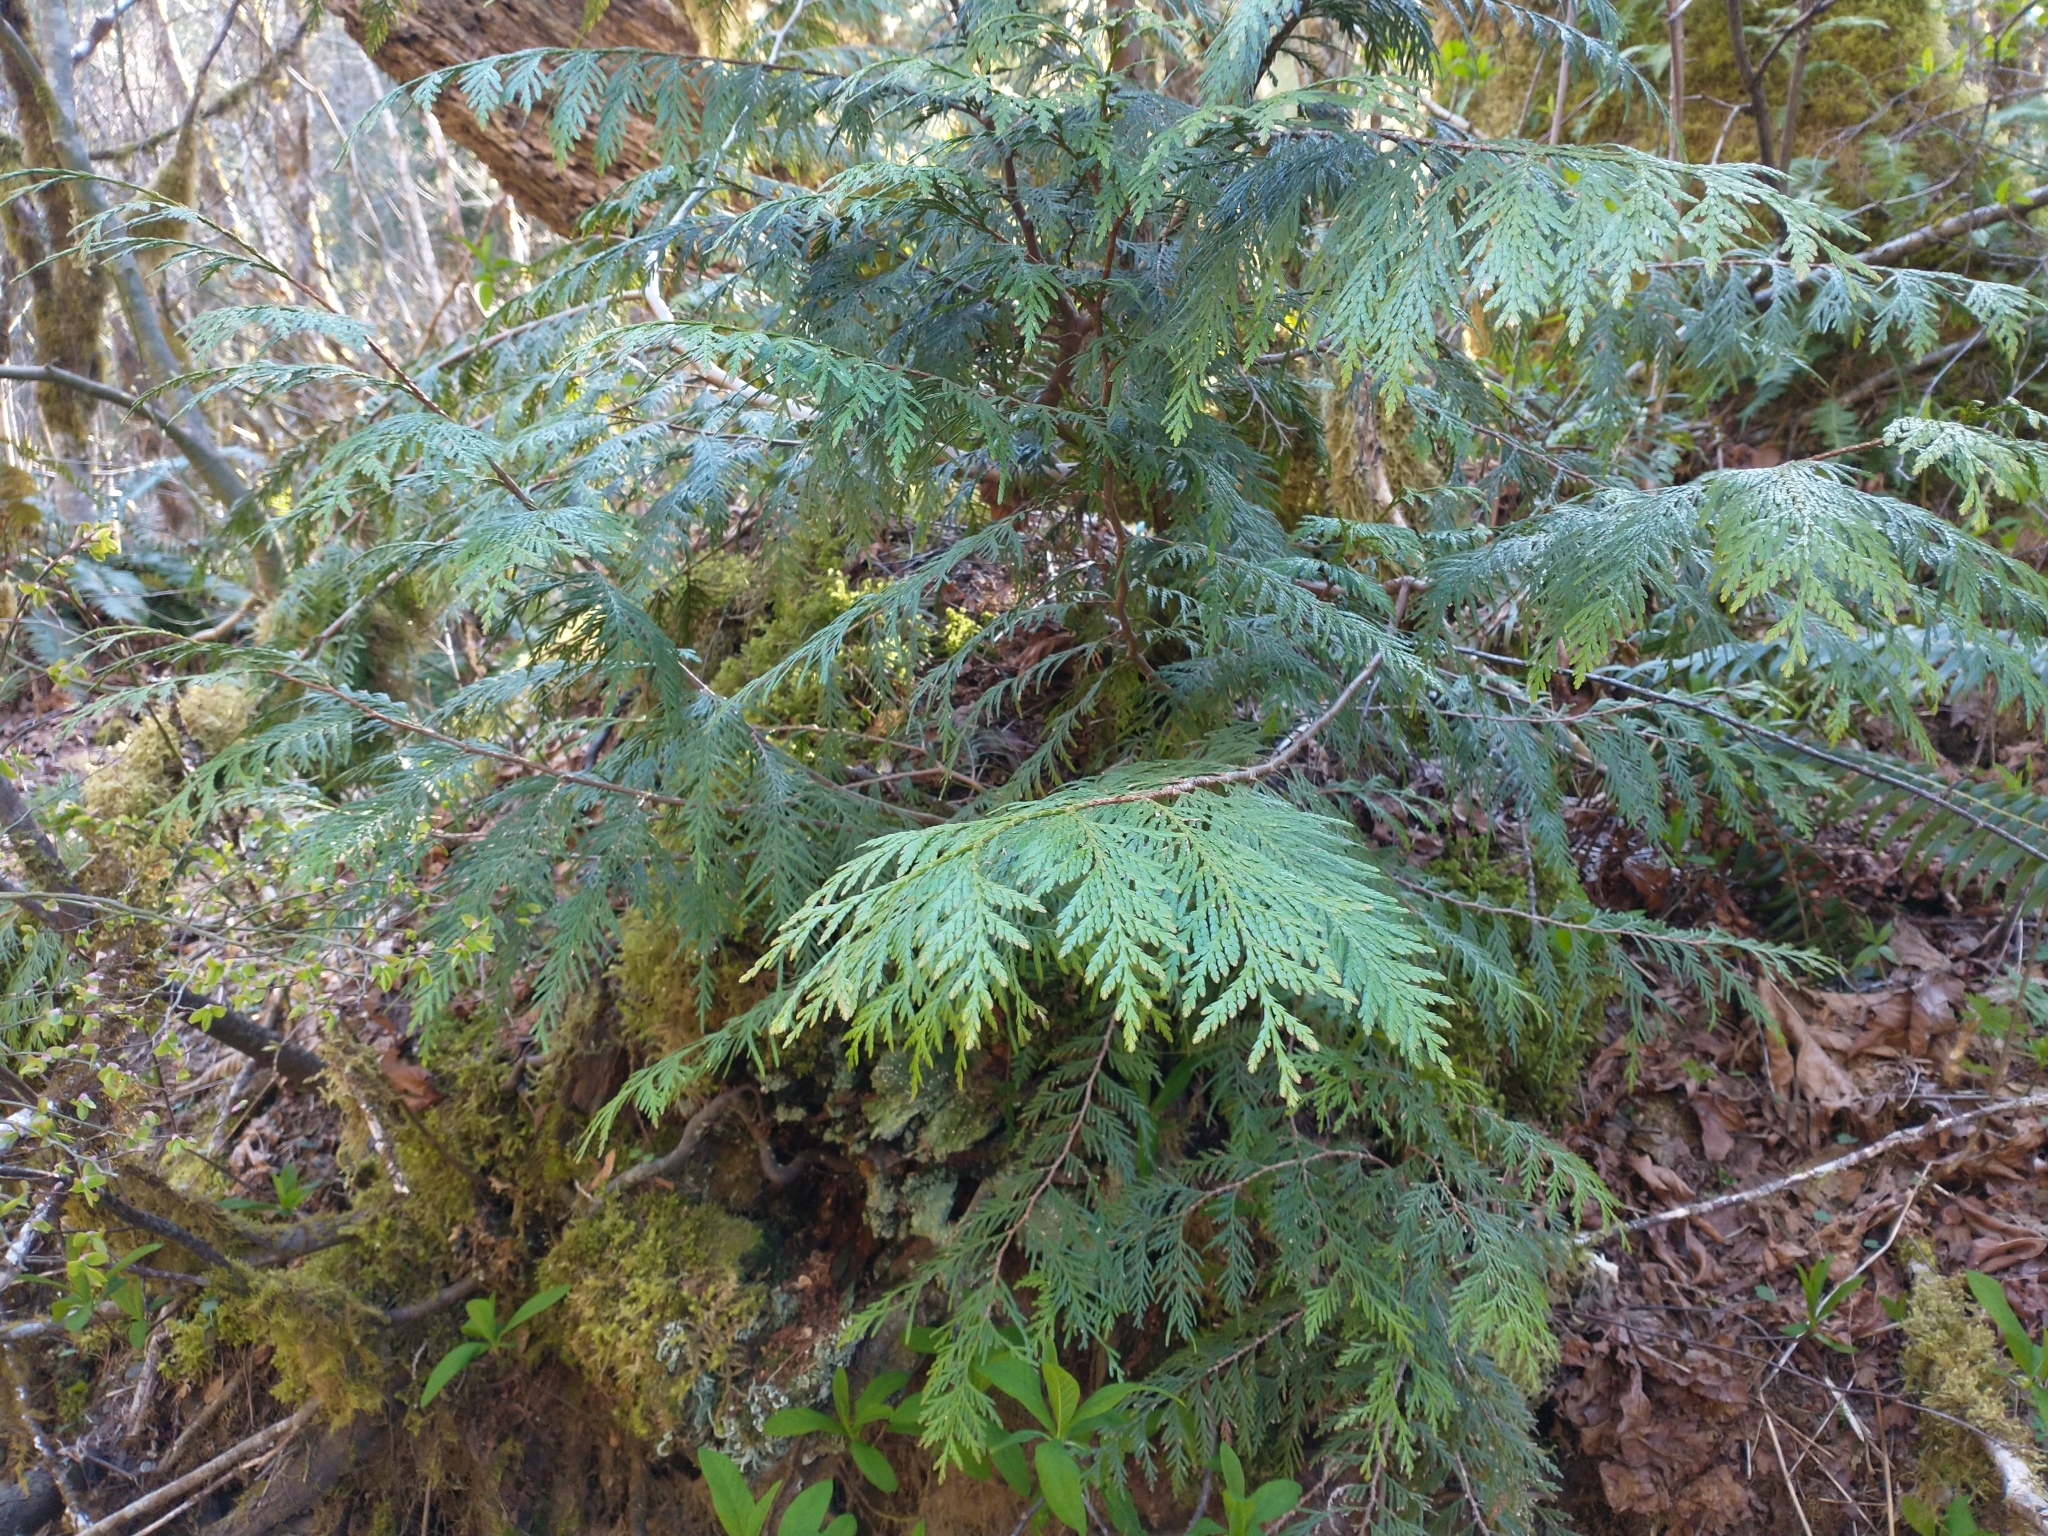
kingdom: Plantae
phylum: Tracheophyta
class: Pinopsida
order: Pinales
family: Cupressaceae
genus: Thuja
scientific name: Thuja plicata
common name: Western red-cedar
